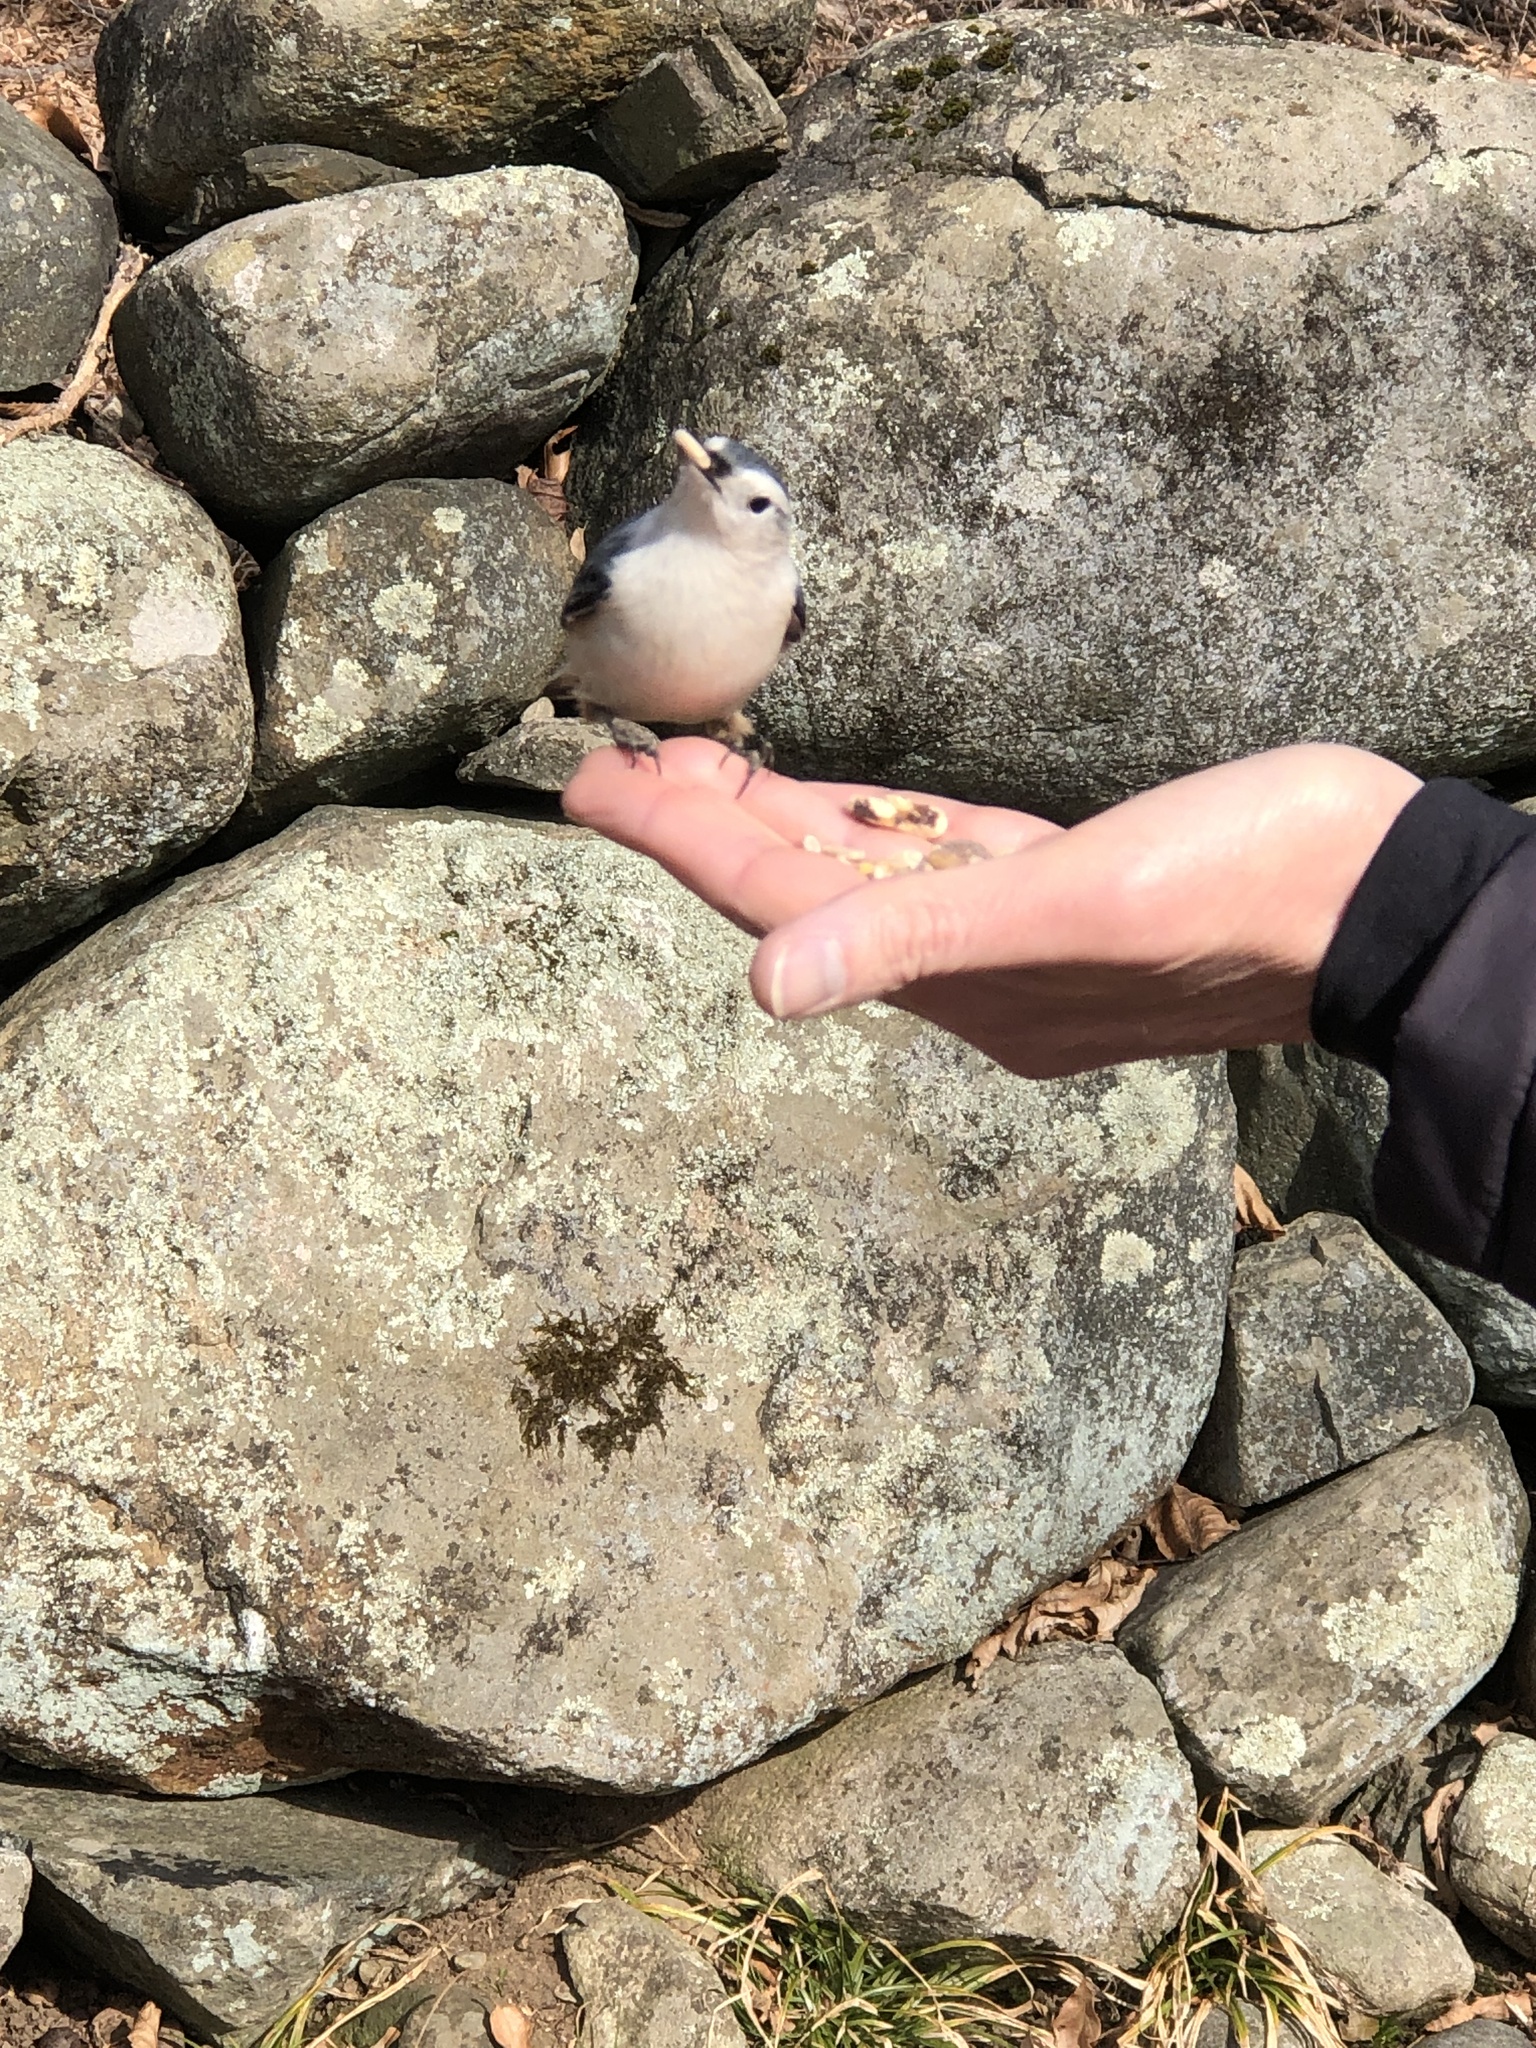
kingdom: Animalia
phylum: Chordata
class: Aves
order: Passeriformes
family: Sittidae
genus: Sitta
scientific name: Sitta carolinensis
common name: White-breasted nuthatch
